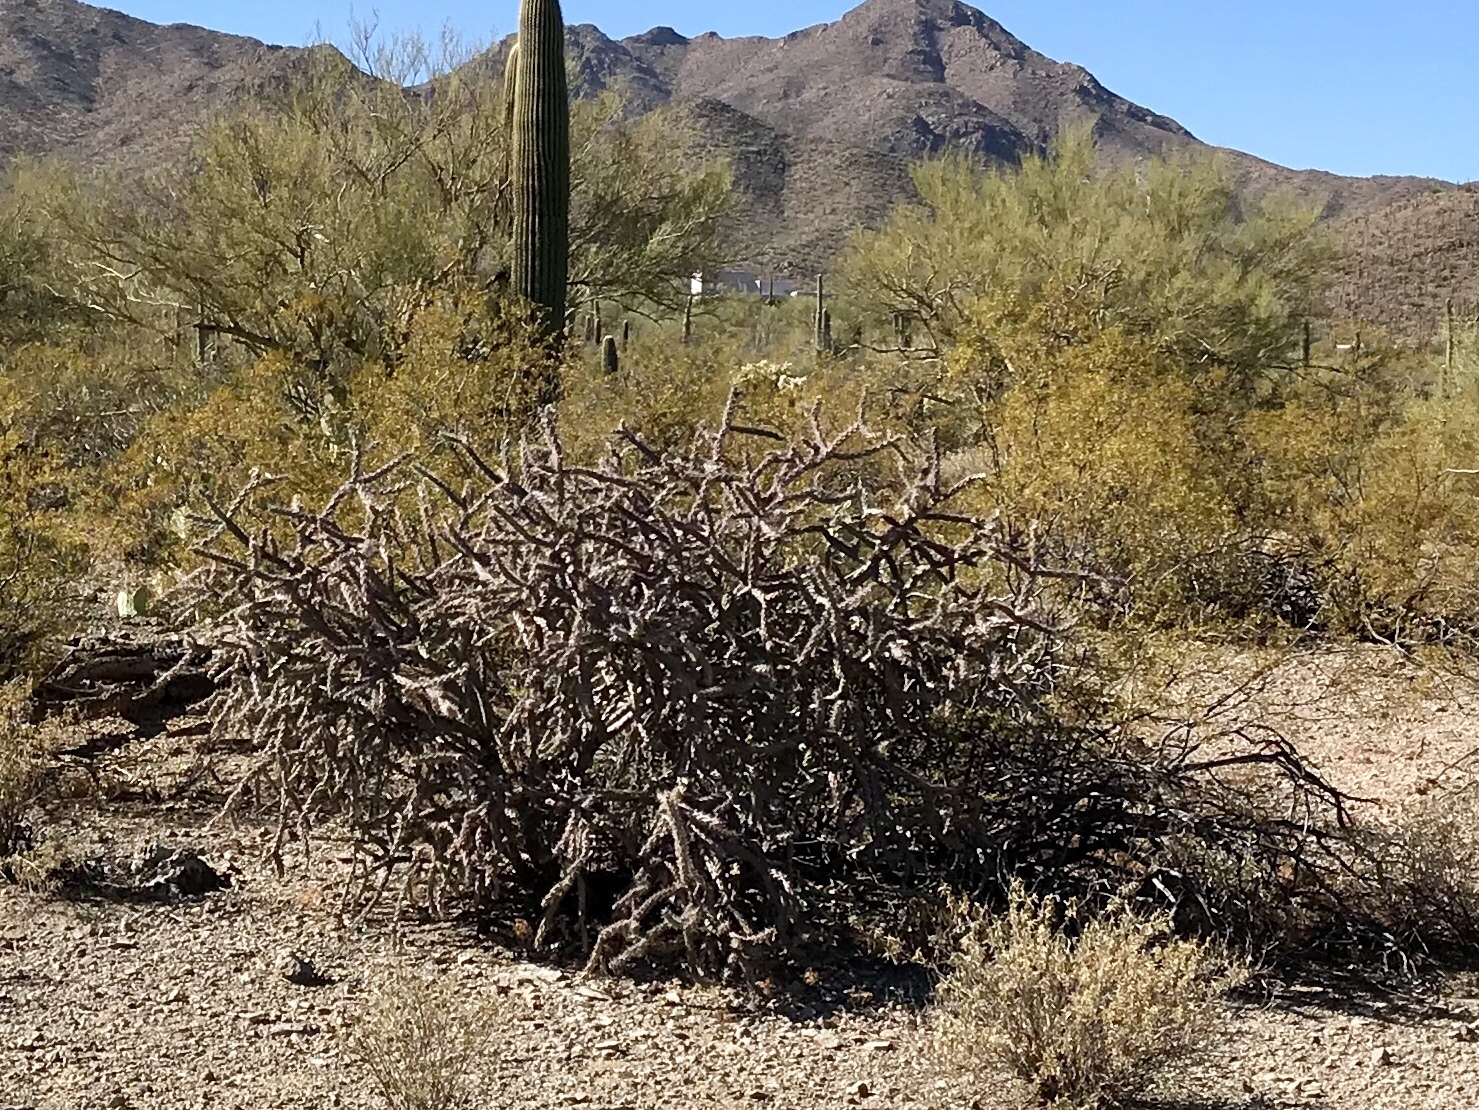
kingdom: Plantae
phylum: Tracheophyta
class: Magnoliopsida
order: Caryophyllales
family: Cactaceae
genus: Cylindropuntia
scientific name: Cylindropuntia thurberi
